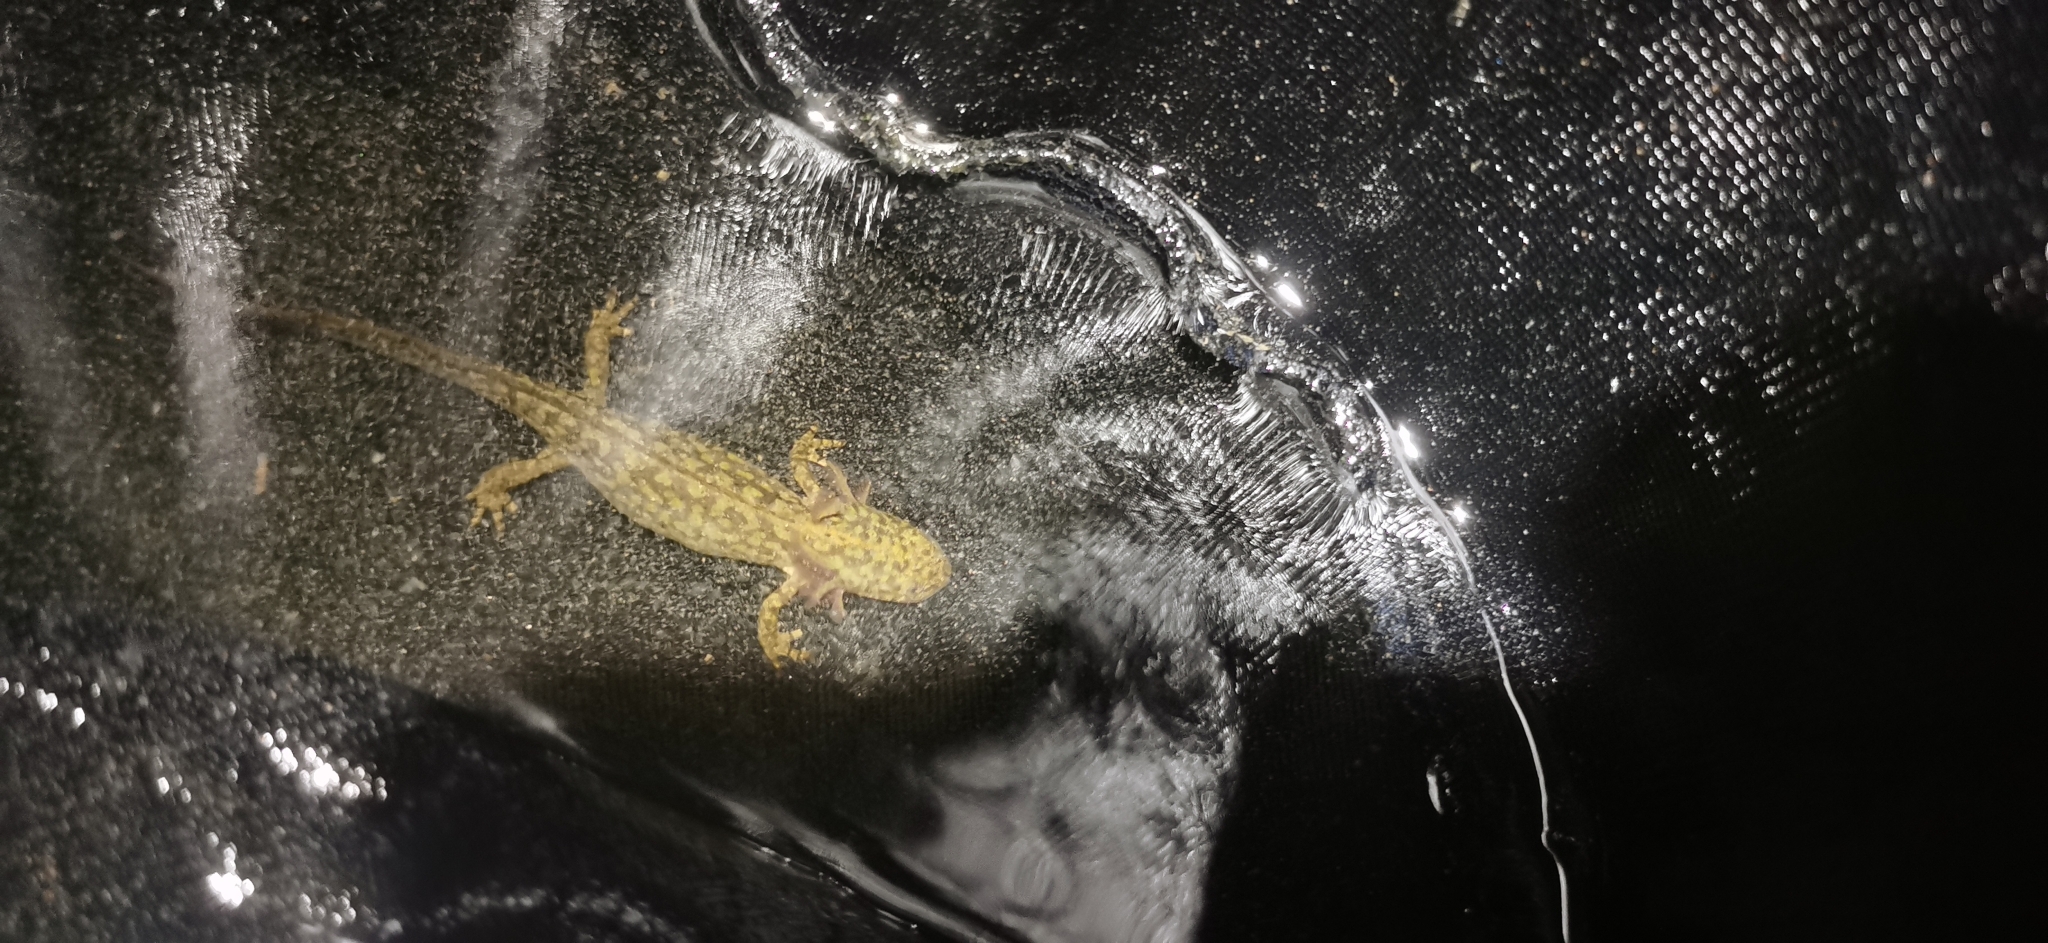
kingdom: Animalia
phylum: Chordata
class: Amphibia
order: Caudata
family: Salamandridae
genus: Ichthyosaura
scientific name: Ichthyosaura alpestris
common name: Alpine newt
